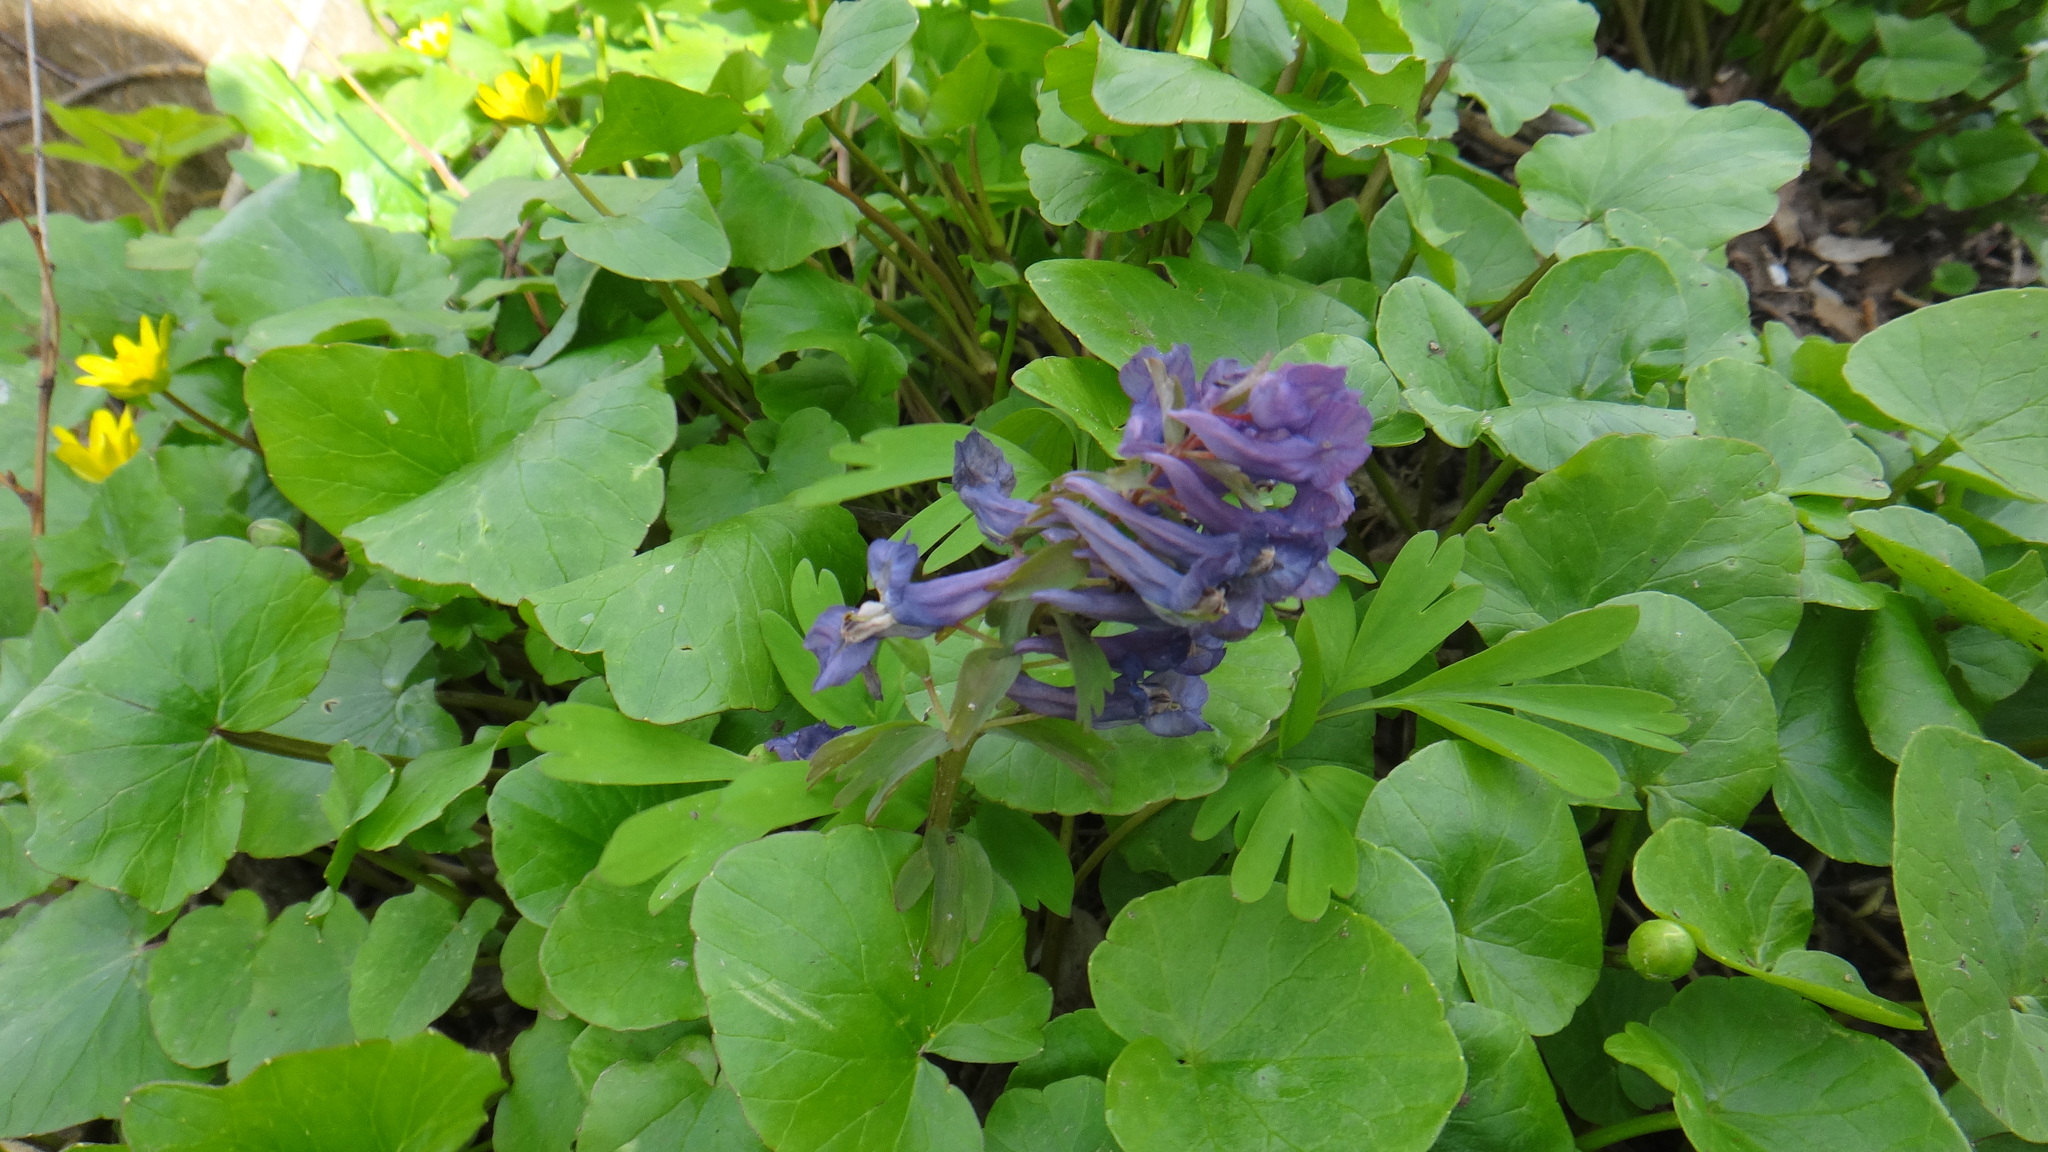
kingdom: Plantae
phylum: Tracheophyta
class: Magnoliopsida
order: Ranunculales
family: Papaveraceae
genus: Corydalis
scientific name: Corydalis solida
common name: Bird-in-a-bush
